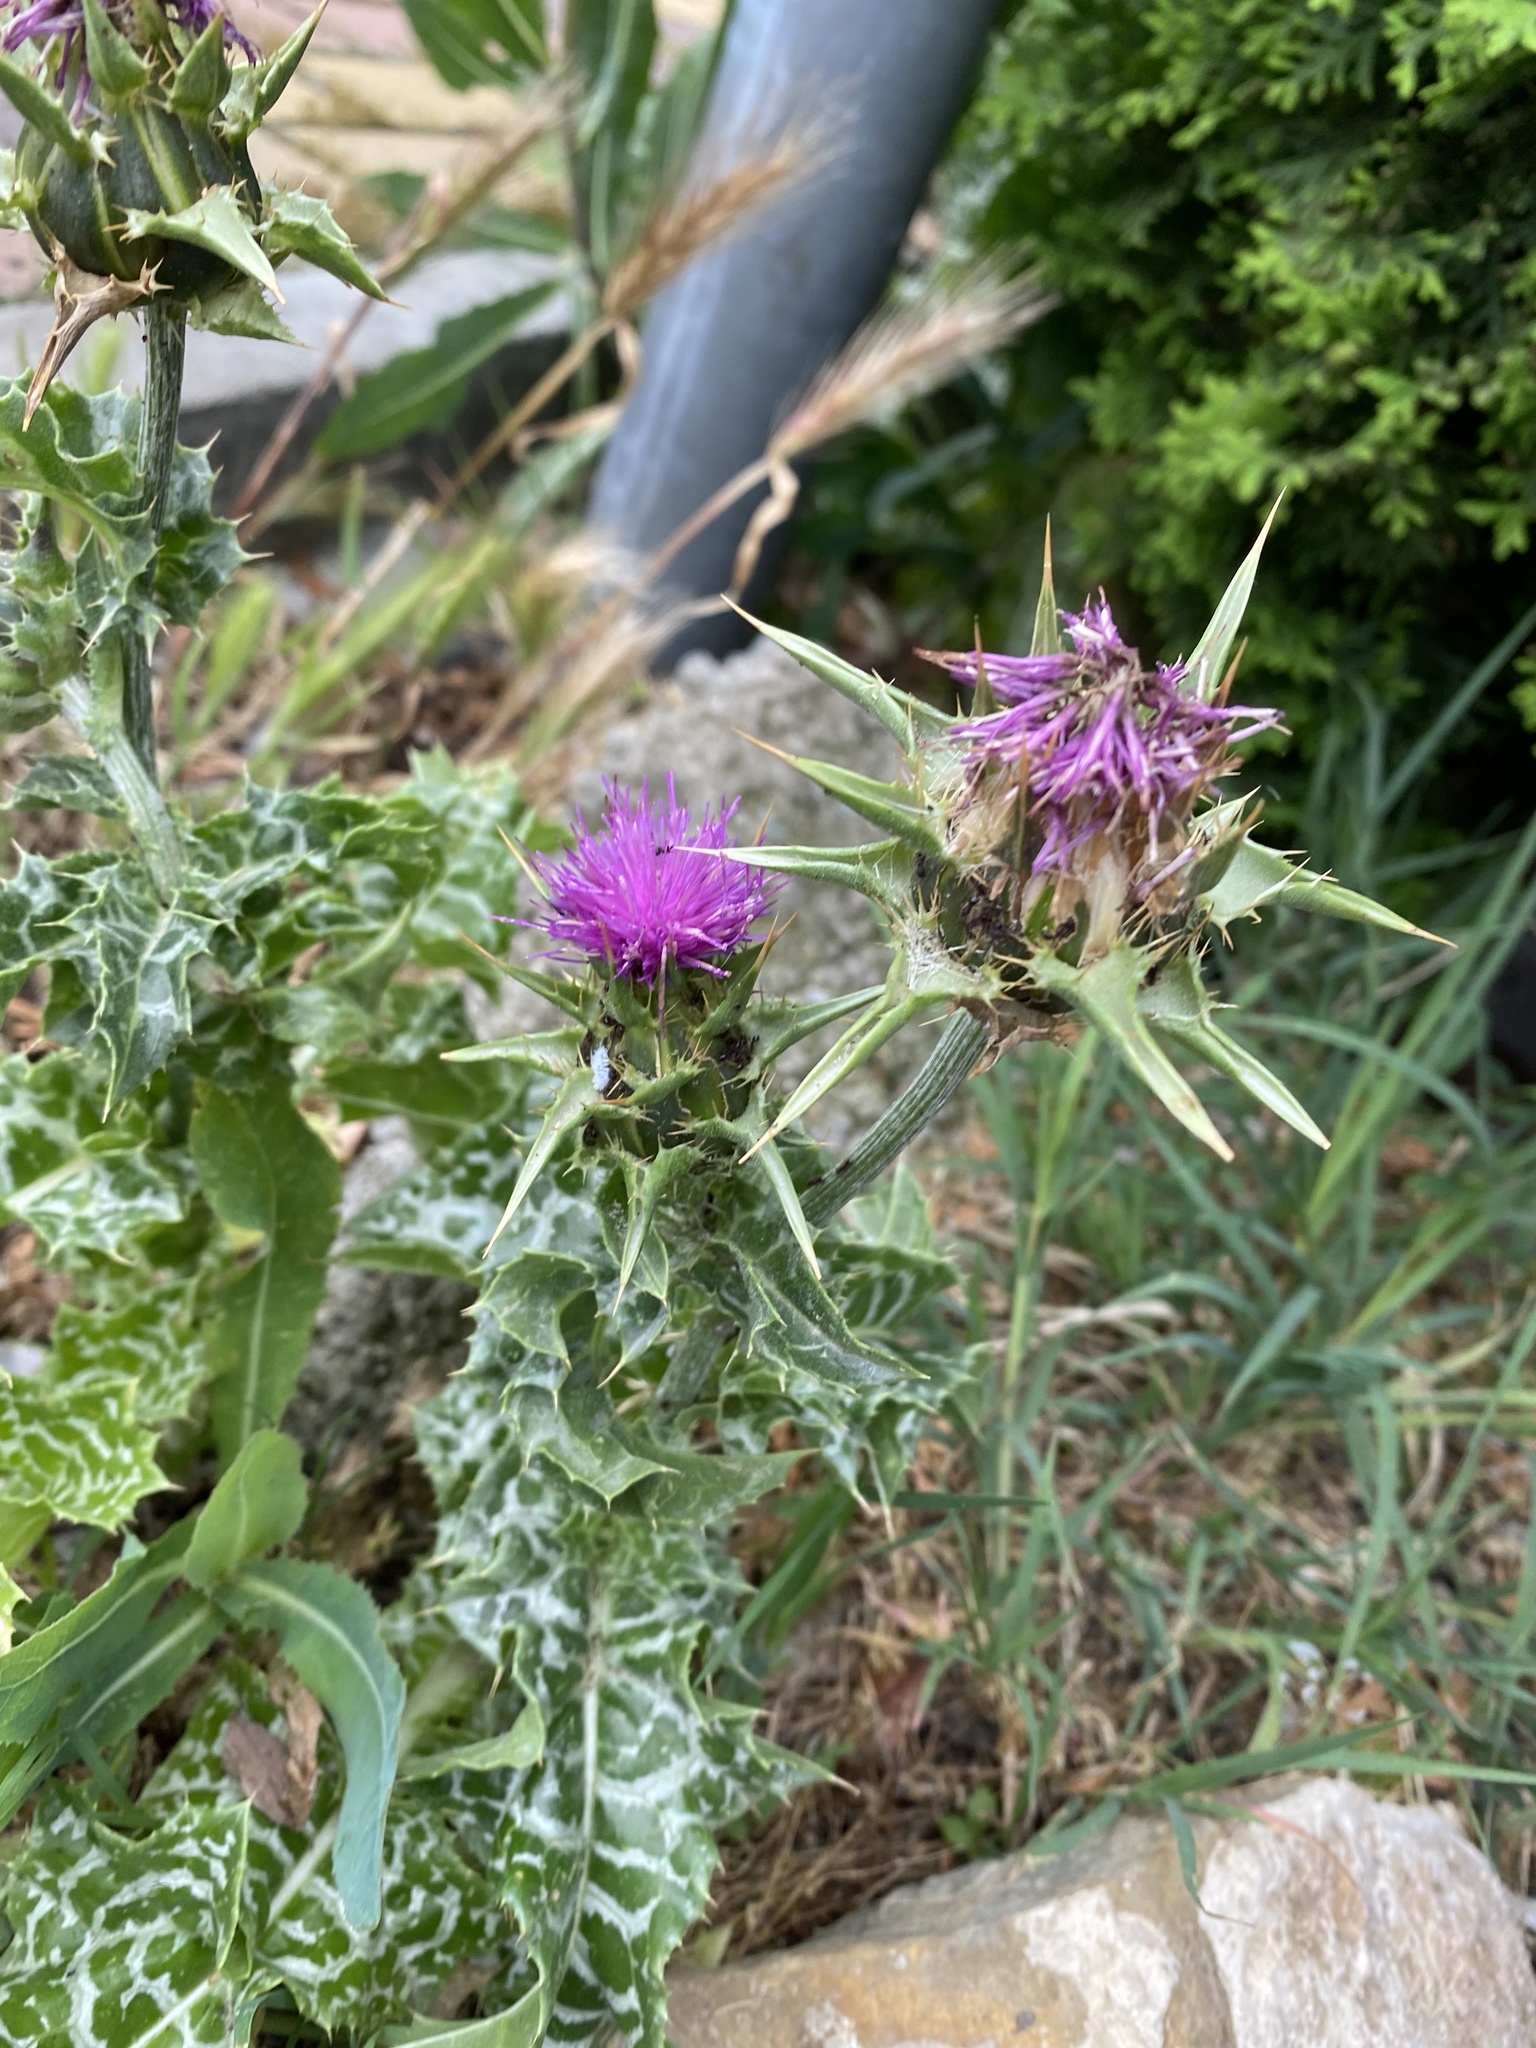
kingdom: Plantae
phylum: Tracheophyta
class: Magnoliopsida
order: Asterales
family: Asteraceae
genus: Silybum
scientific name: Silybum marianum
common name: Milk thistle
